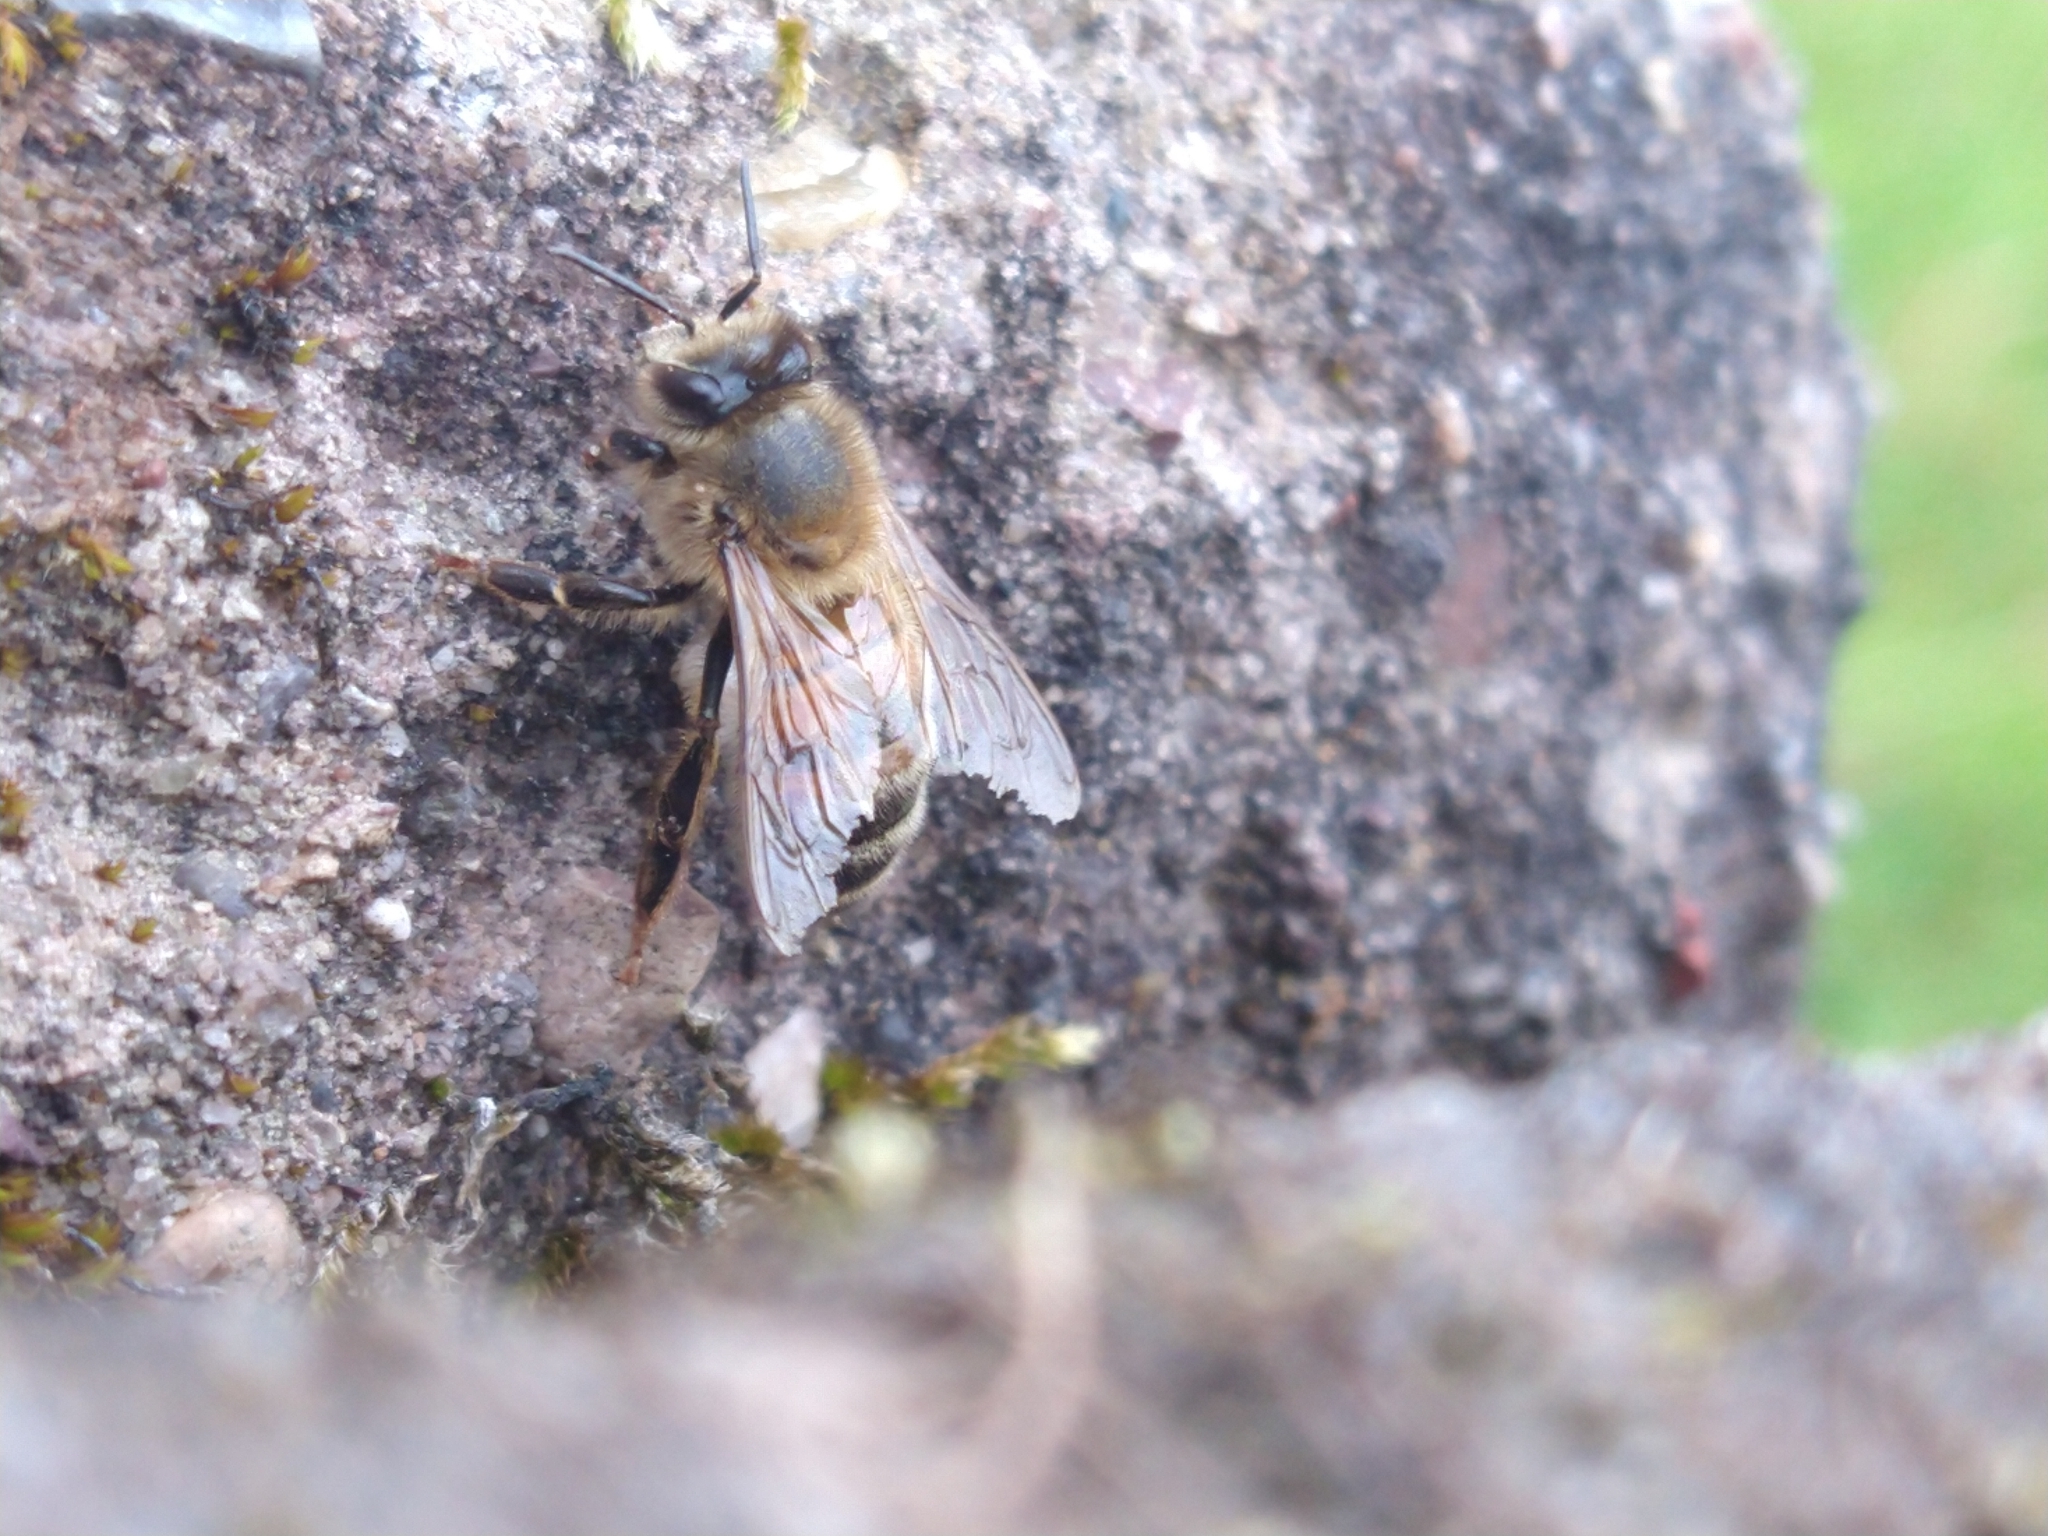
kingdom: Animalia
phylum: Arthropoda
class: Insecta
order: Hymenoptera
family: Apidae
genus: Apis
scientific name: Apis mellifera
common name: Honey bee
